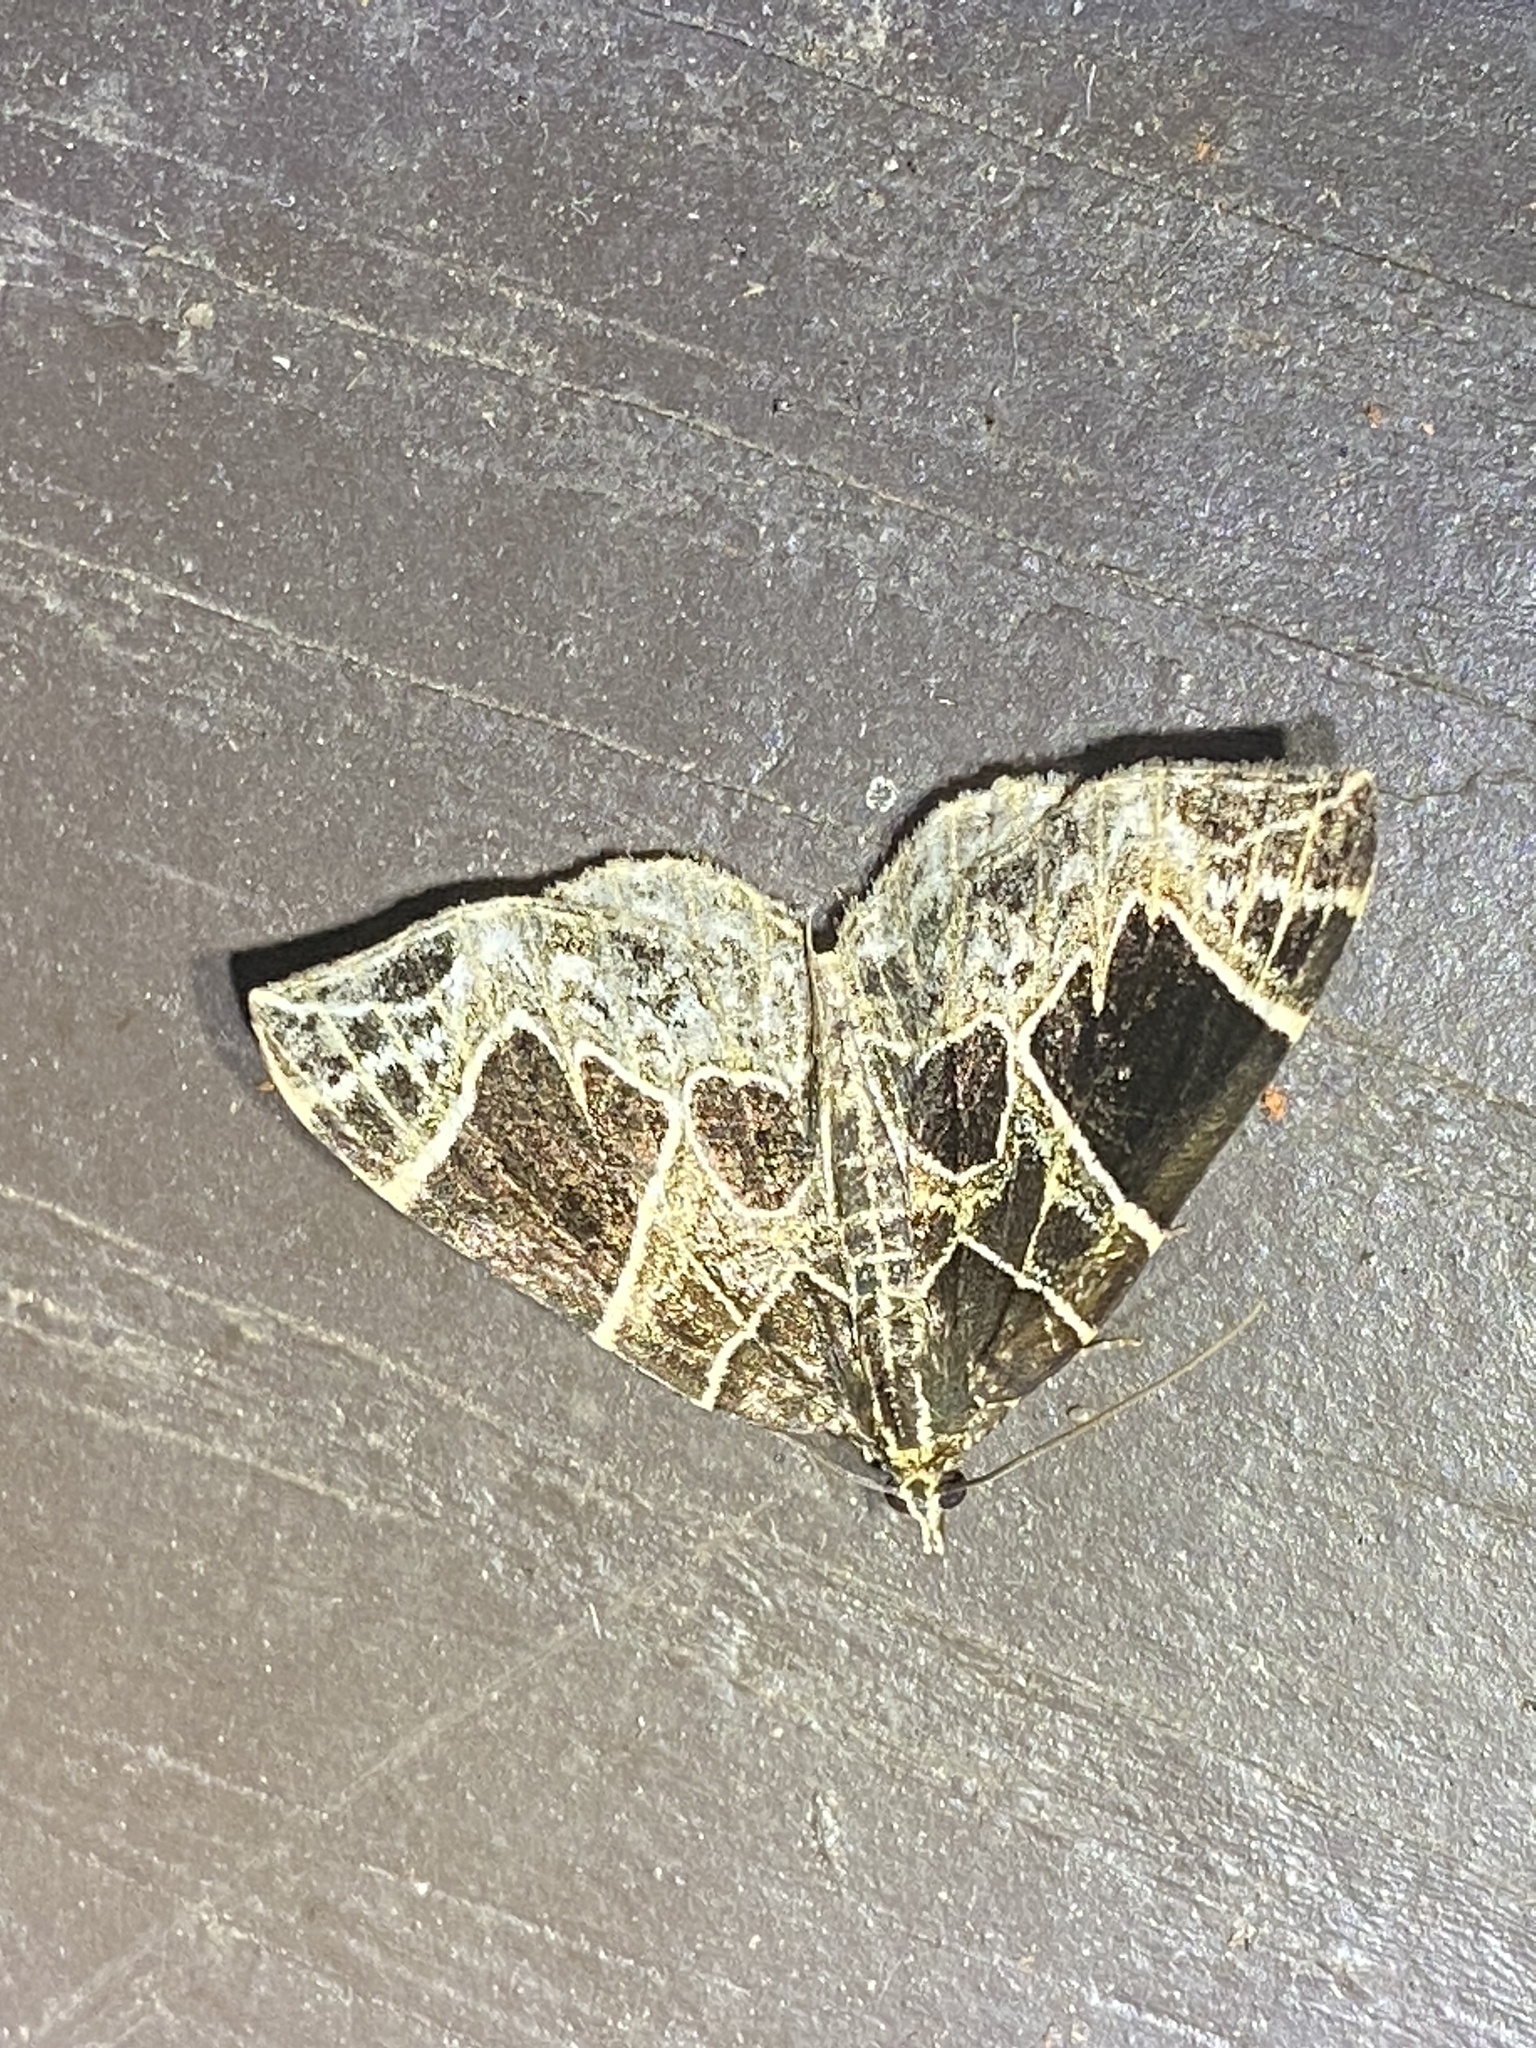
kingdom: Animalia
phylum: Arthropoda
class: Insecta
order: Lepidoptera
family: Geometridae
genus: Ecliptopera
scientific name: Ecliptopera atricolorata
